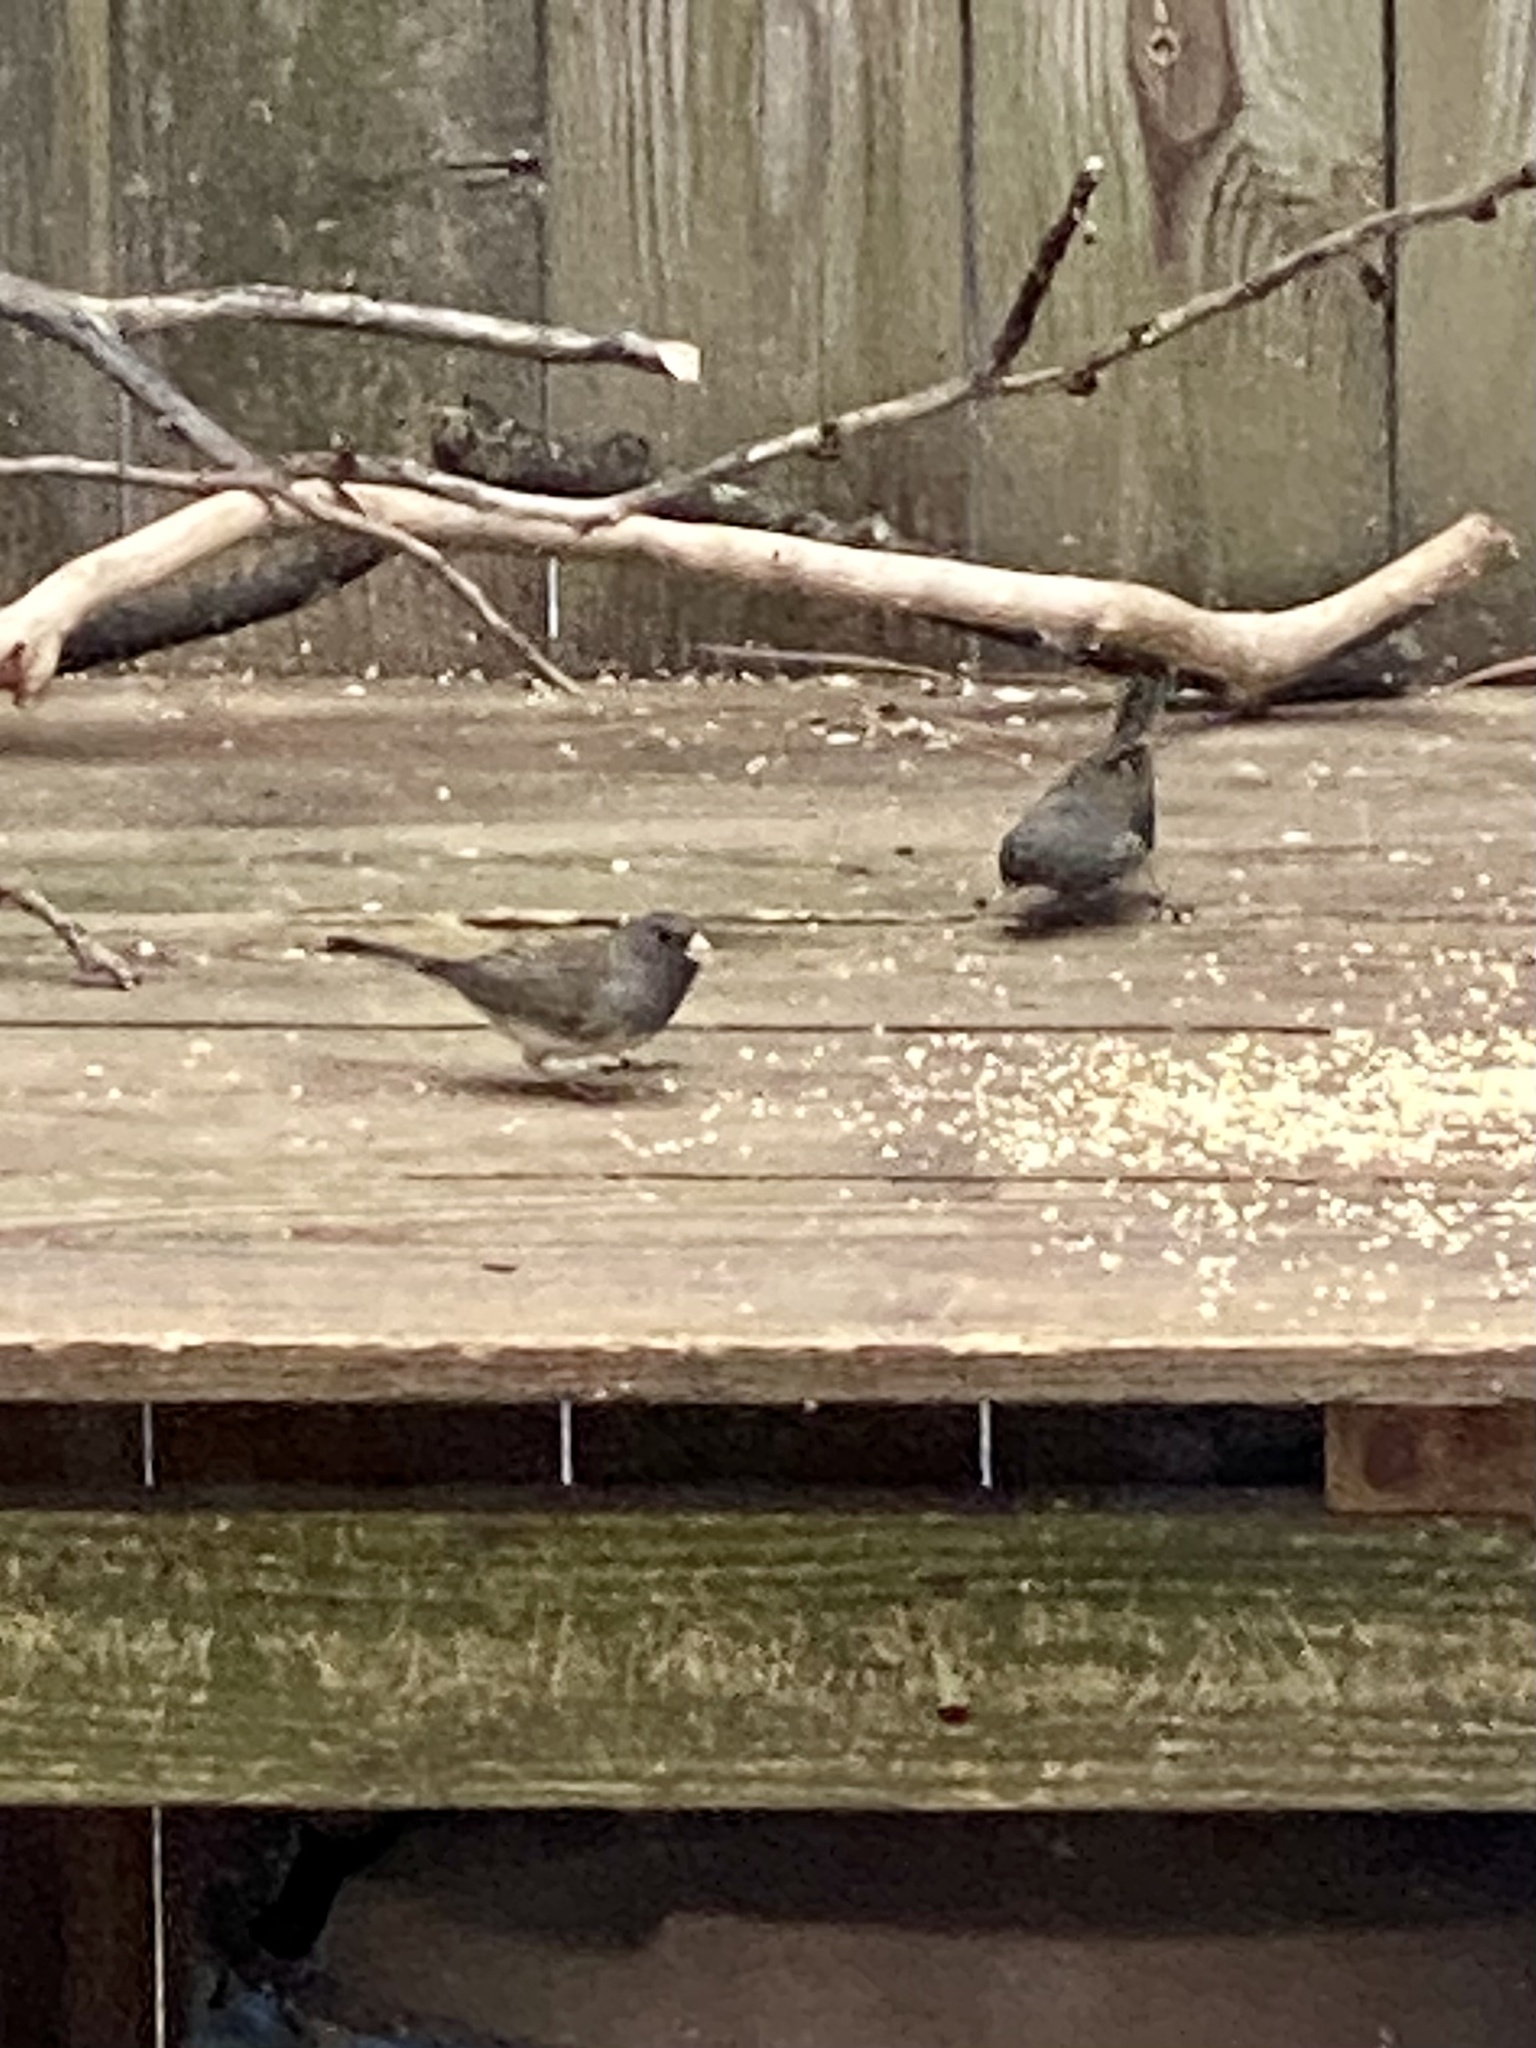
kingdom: Animalia
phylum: Chordata
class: Aves
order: Passeriformes
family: Passerellidae
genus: Junco
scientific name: Junco hyemalis
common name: Dark-eyed junco
